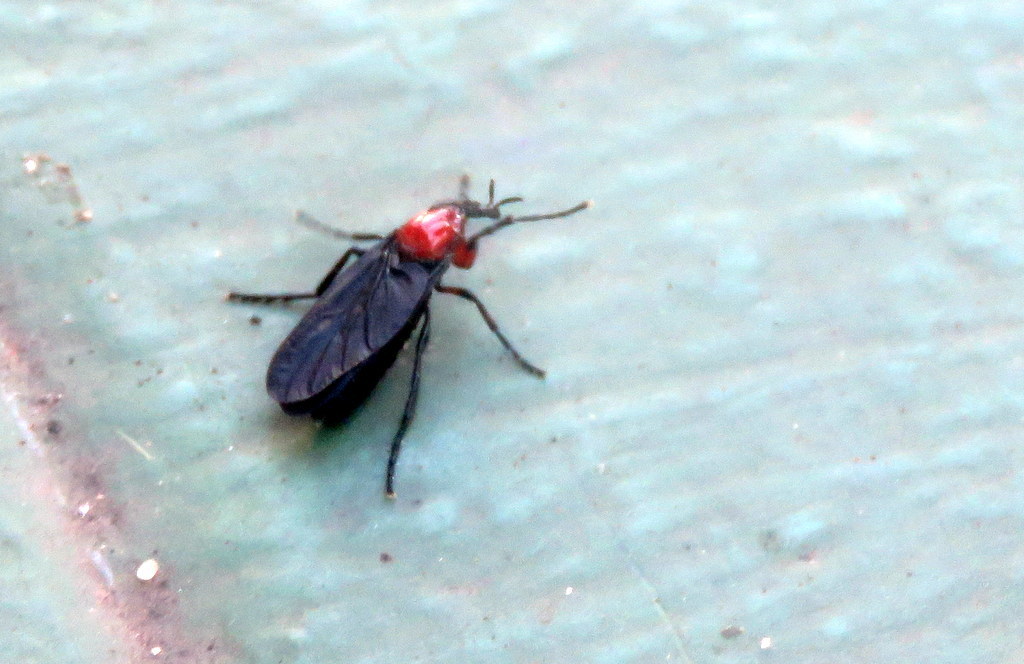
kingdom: Animalia
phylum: Arthropoda
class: Insecta
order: Diptera
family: Bibionidae
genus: Dilophus
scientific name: Dilophus pectoralis
